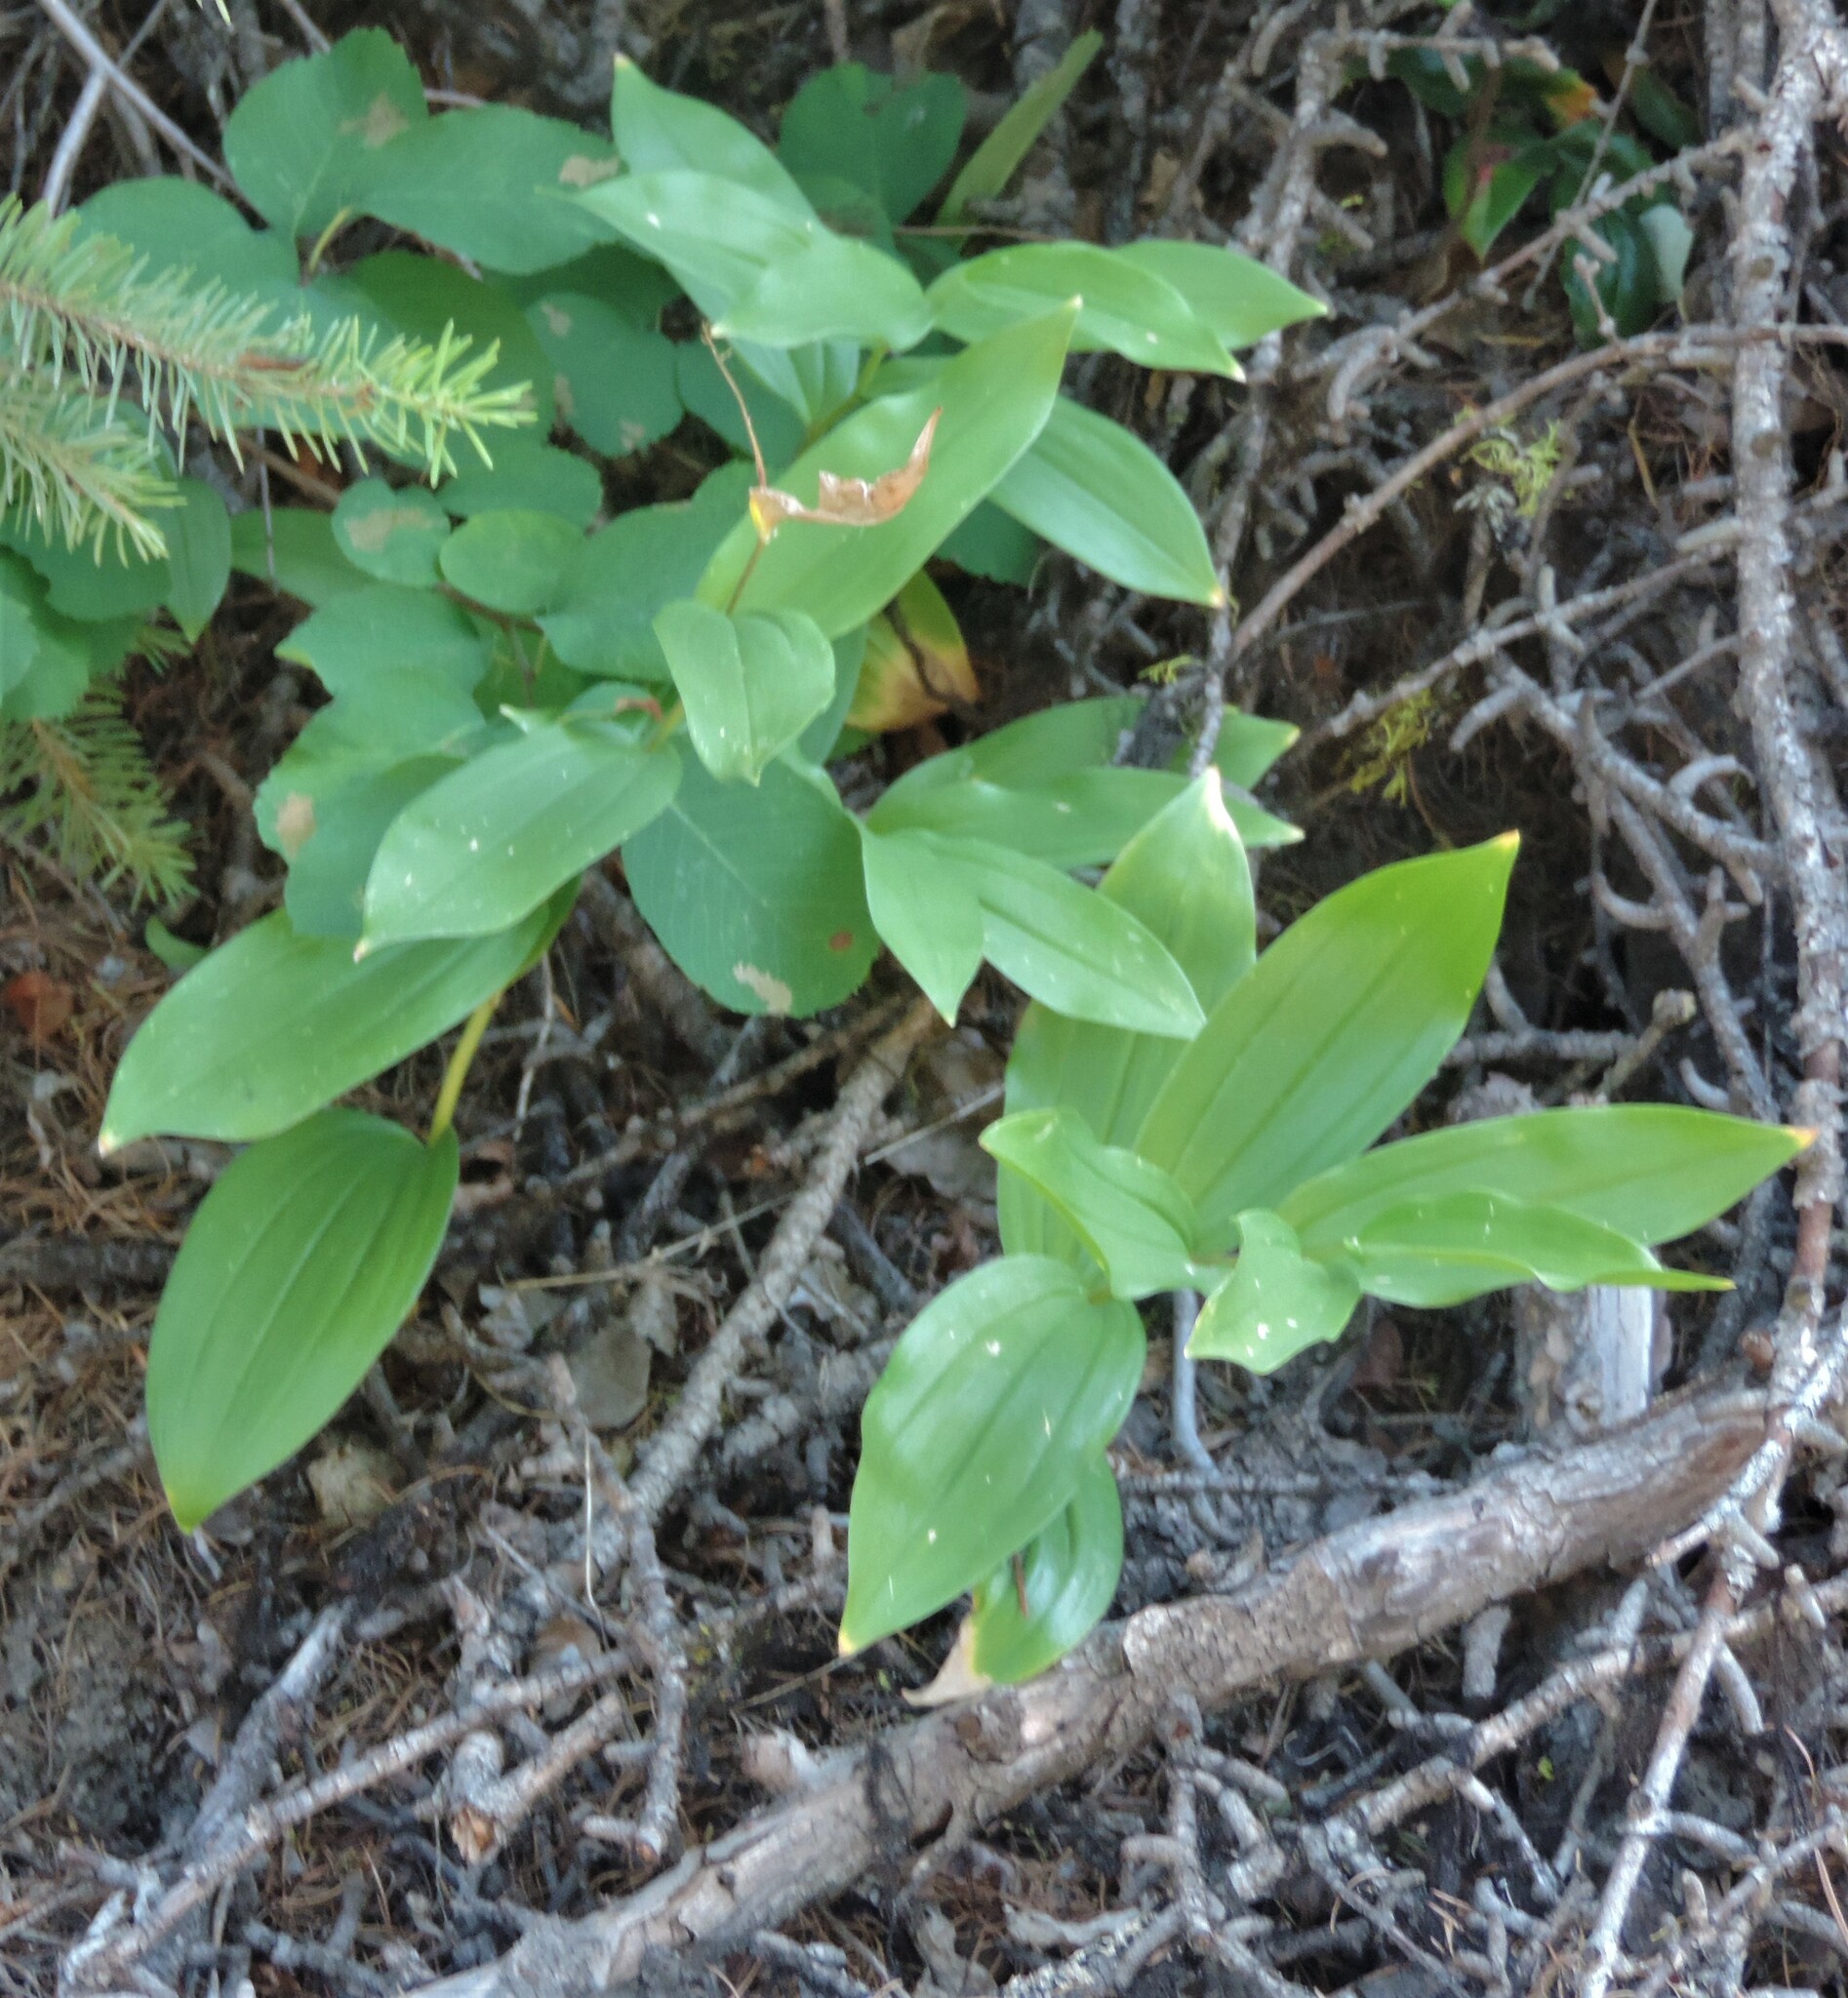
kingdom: Plantae
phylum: Tracheophyta
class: Liliopsida
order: Asparagales
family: Asparagaceae
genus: Maianthemum
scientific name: Maianthemum racemosum
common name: False spikenard
